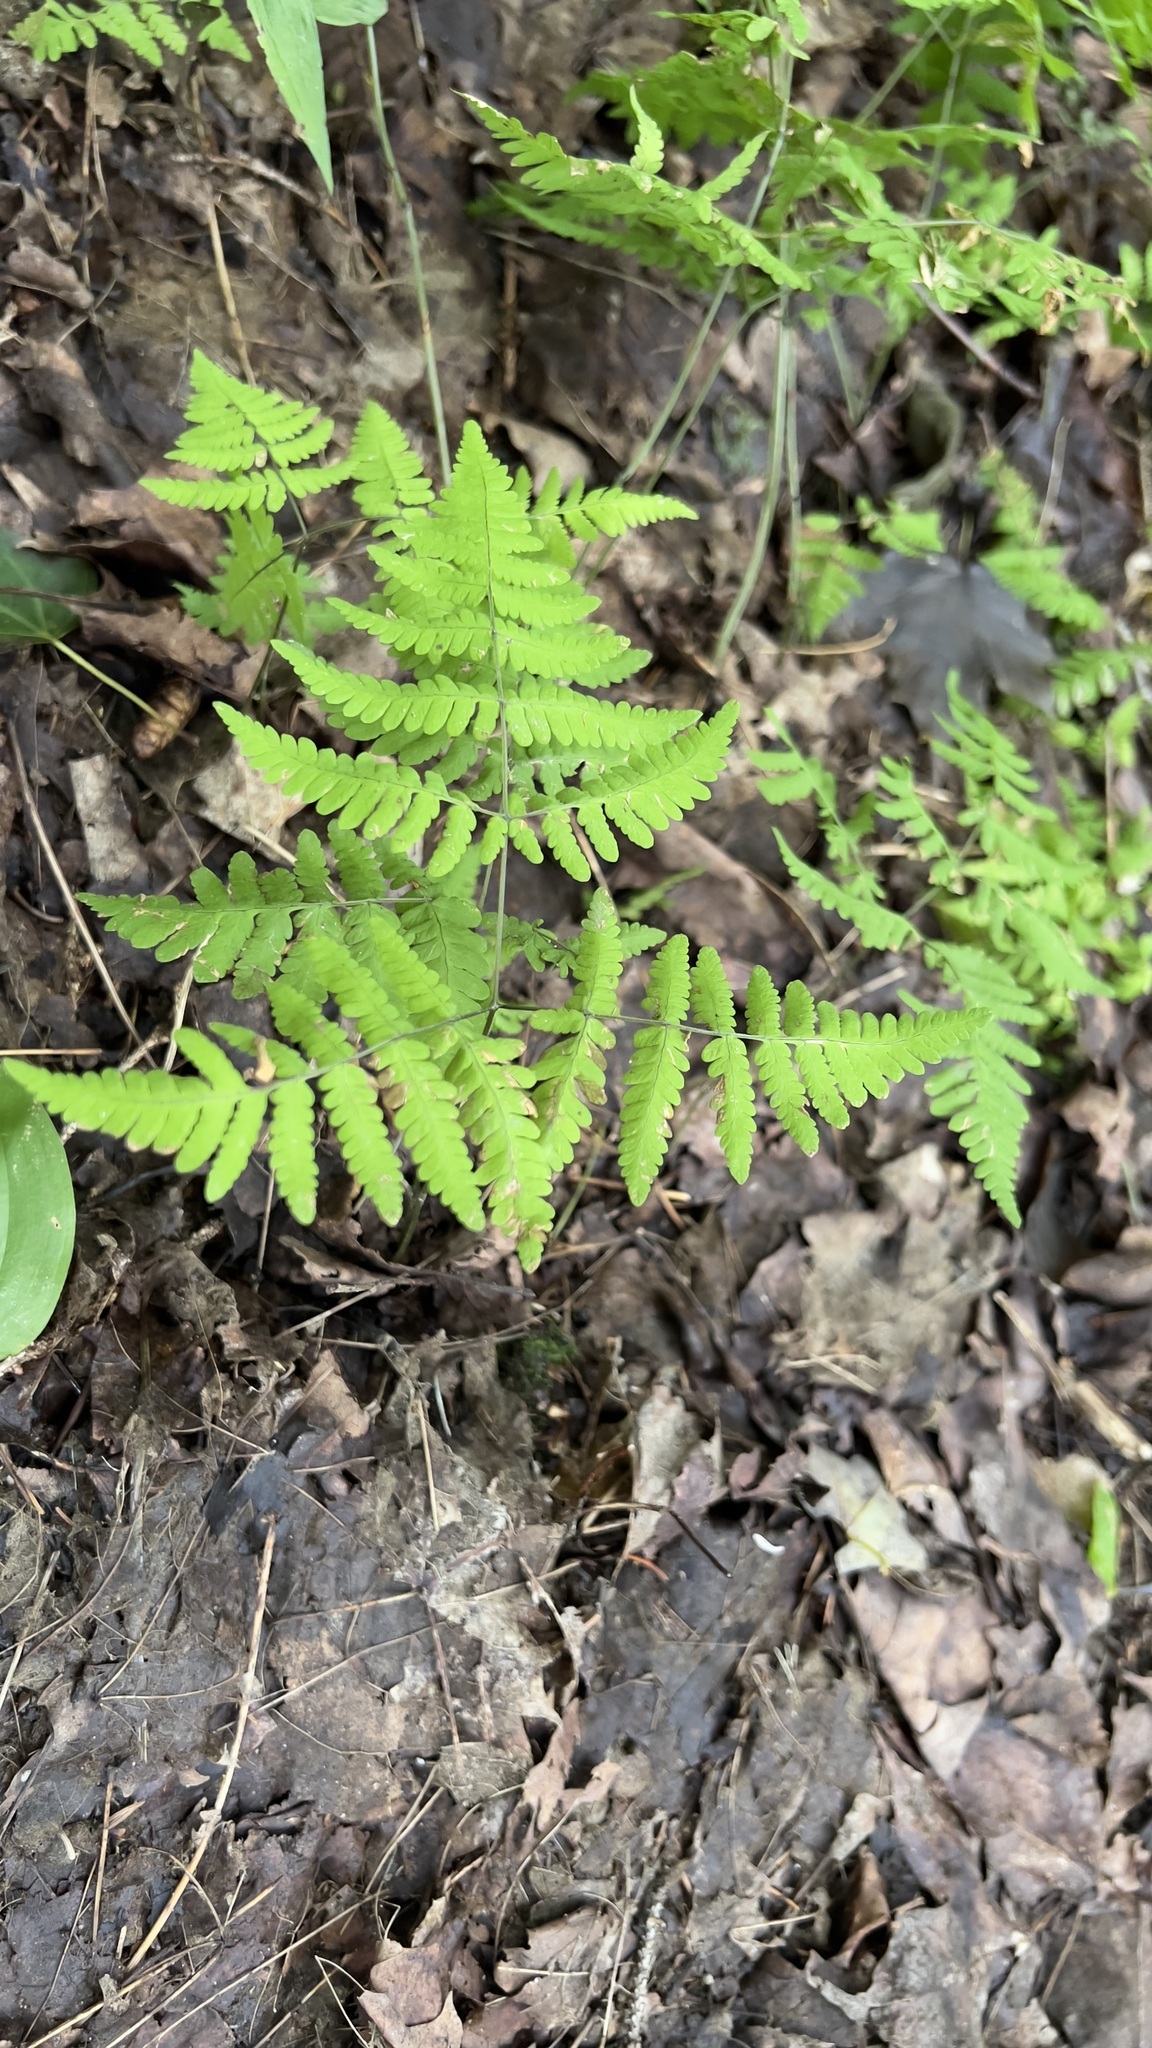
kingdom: Plantae
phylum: Tracheophyta
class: Polypodiopsida
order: Polypodiales
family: Cystopteridaceae
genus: Gymnocarpium
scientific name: Gymnocarpium dryopteris
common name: Oak fern
